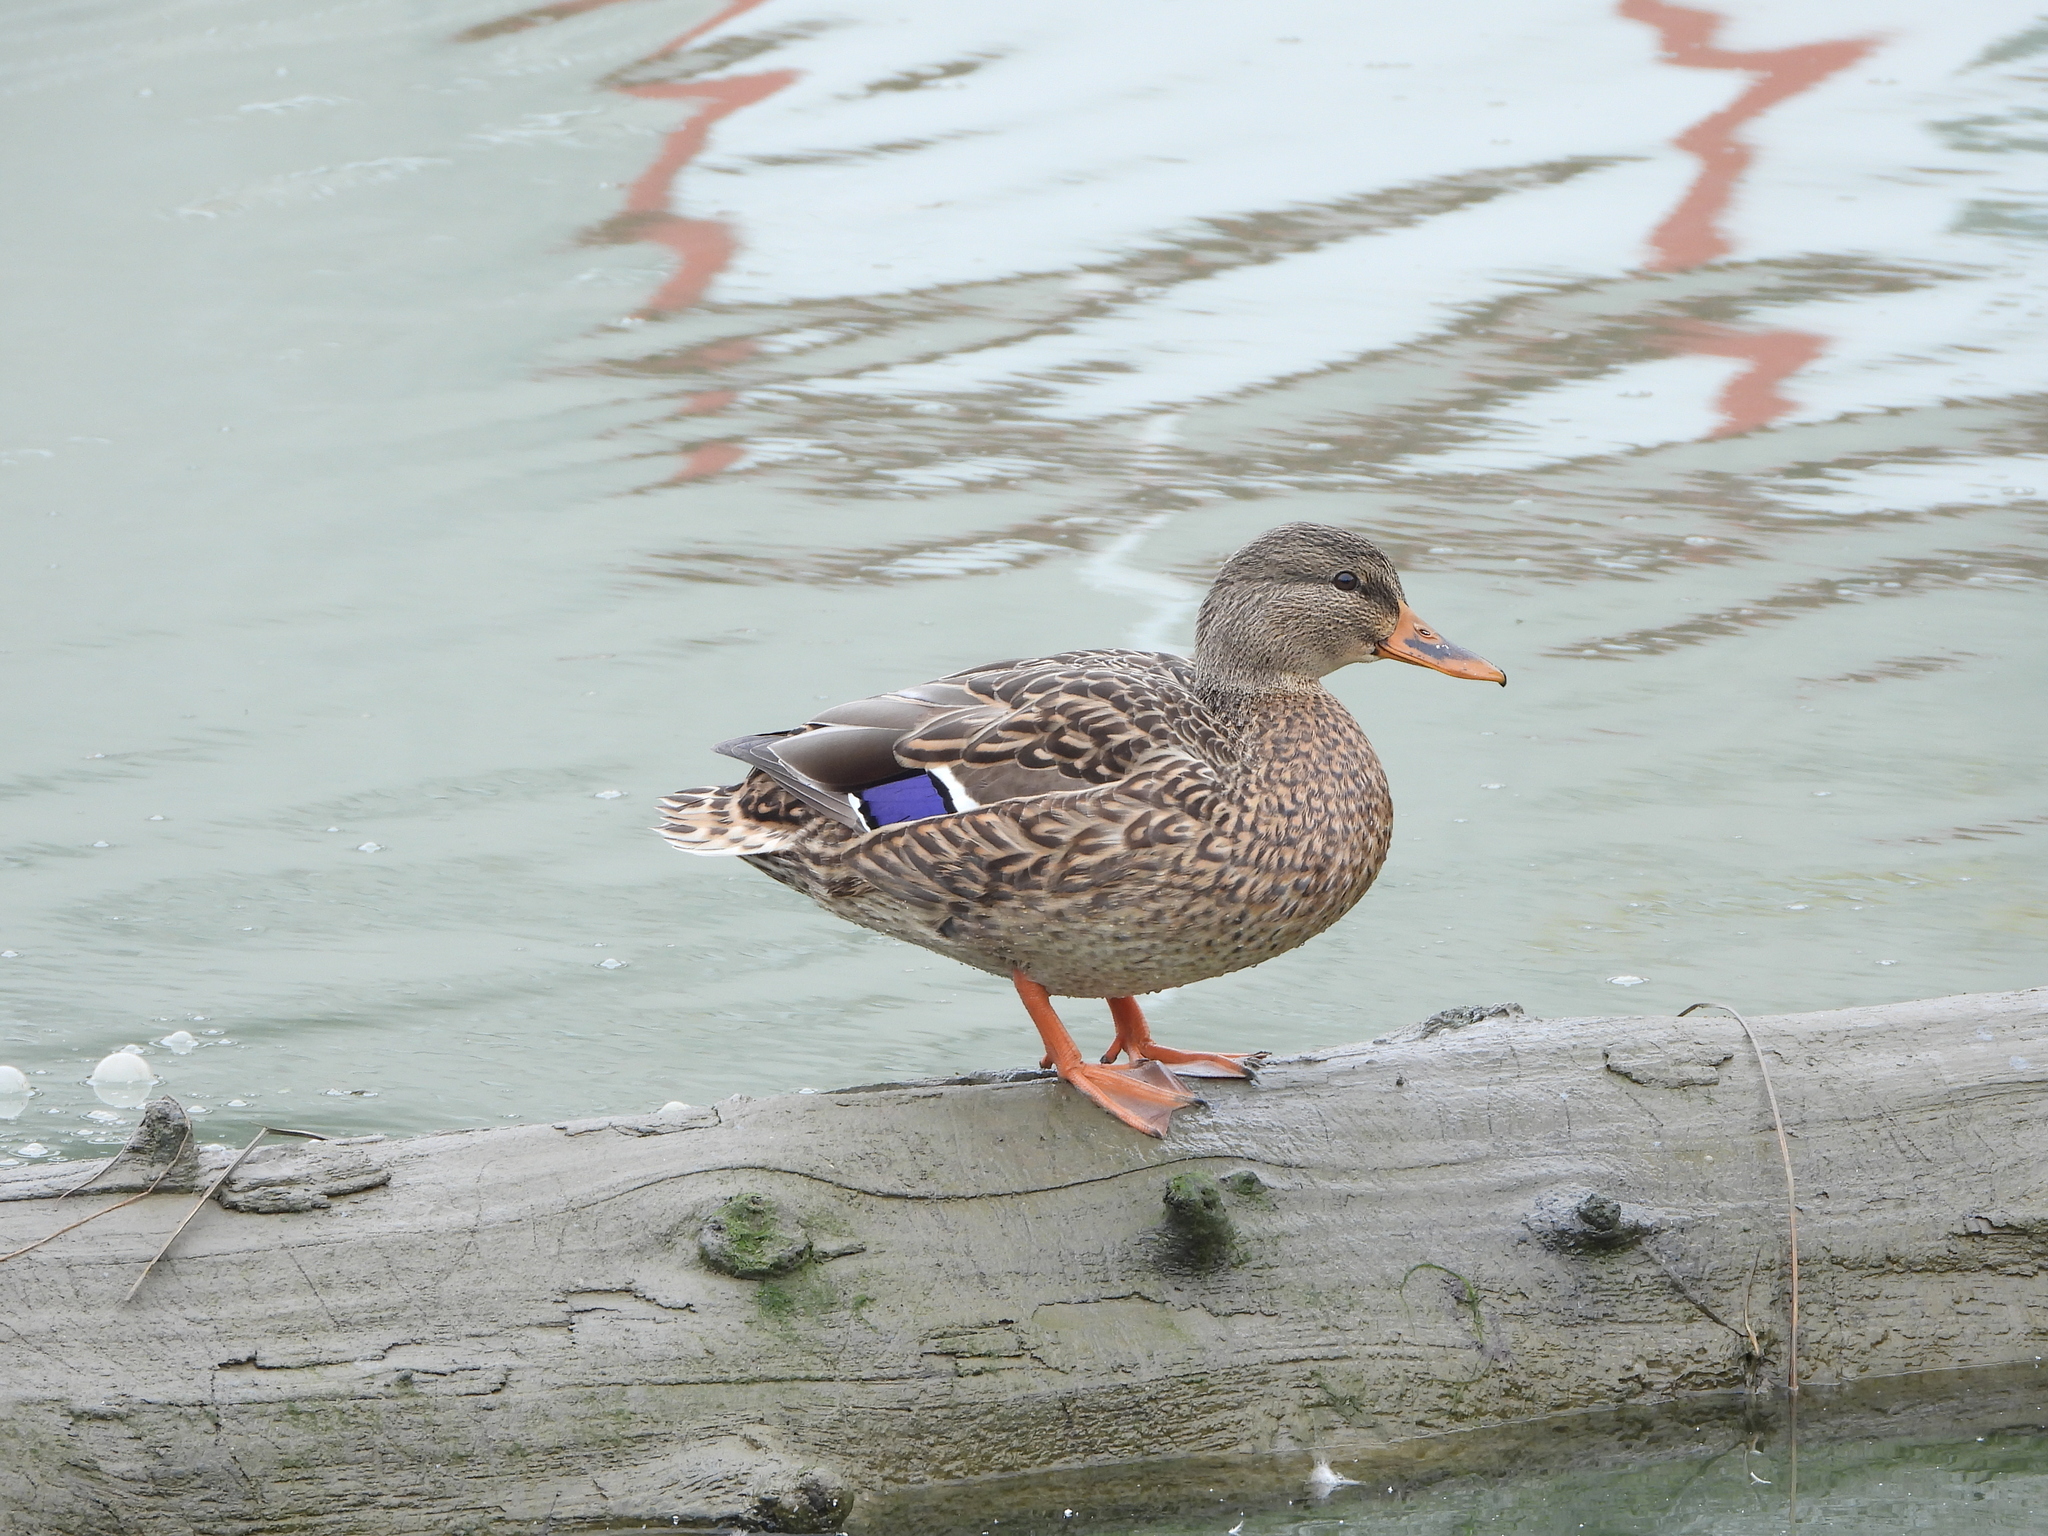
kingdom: Animalia
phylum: Chordata
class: Aves
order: Anseriformes
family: Anatidae
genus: Anas
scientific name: Anas platyrhynchos
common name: Mallard
